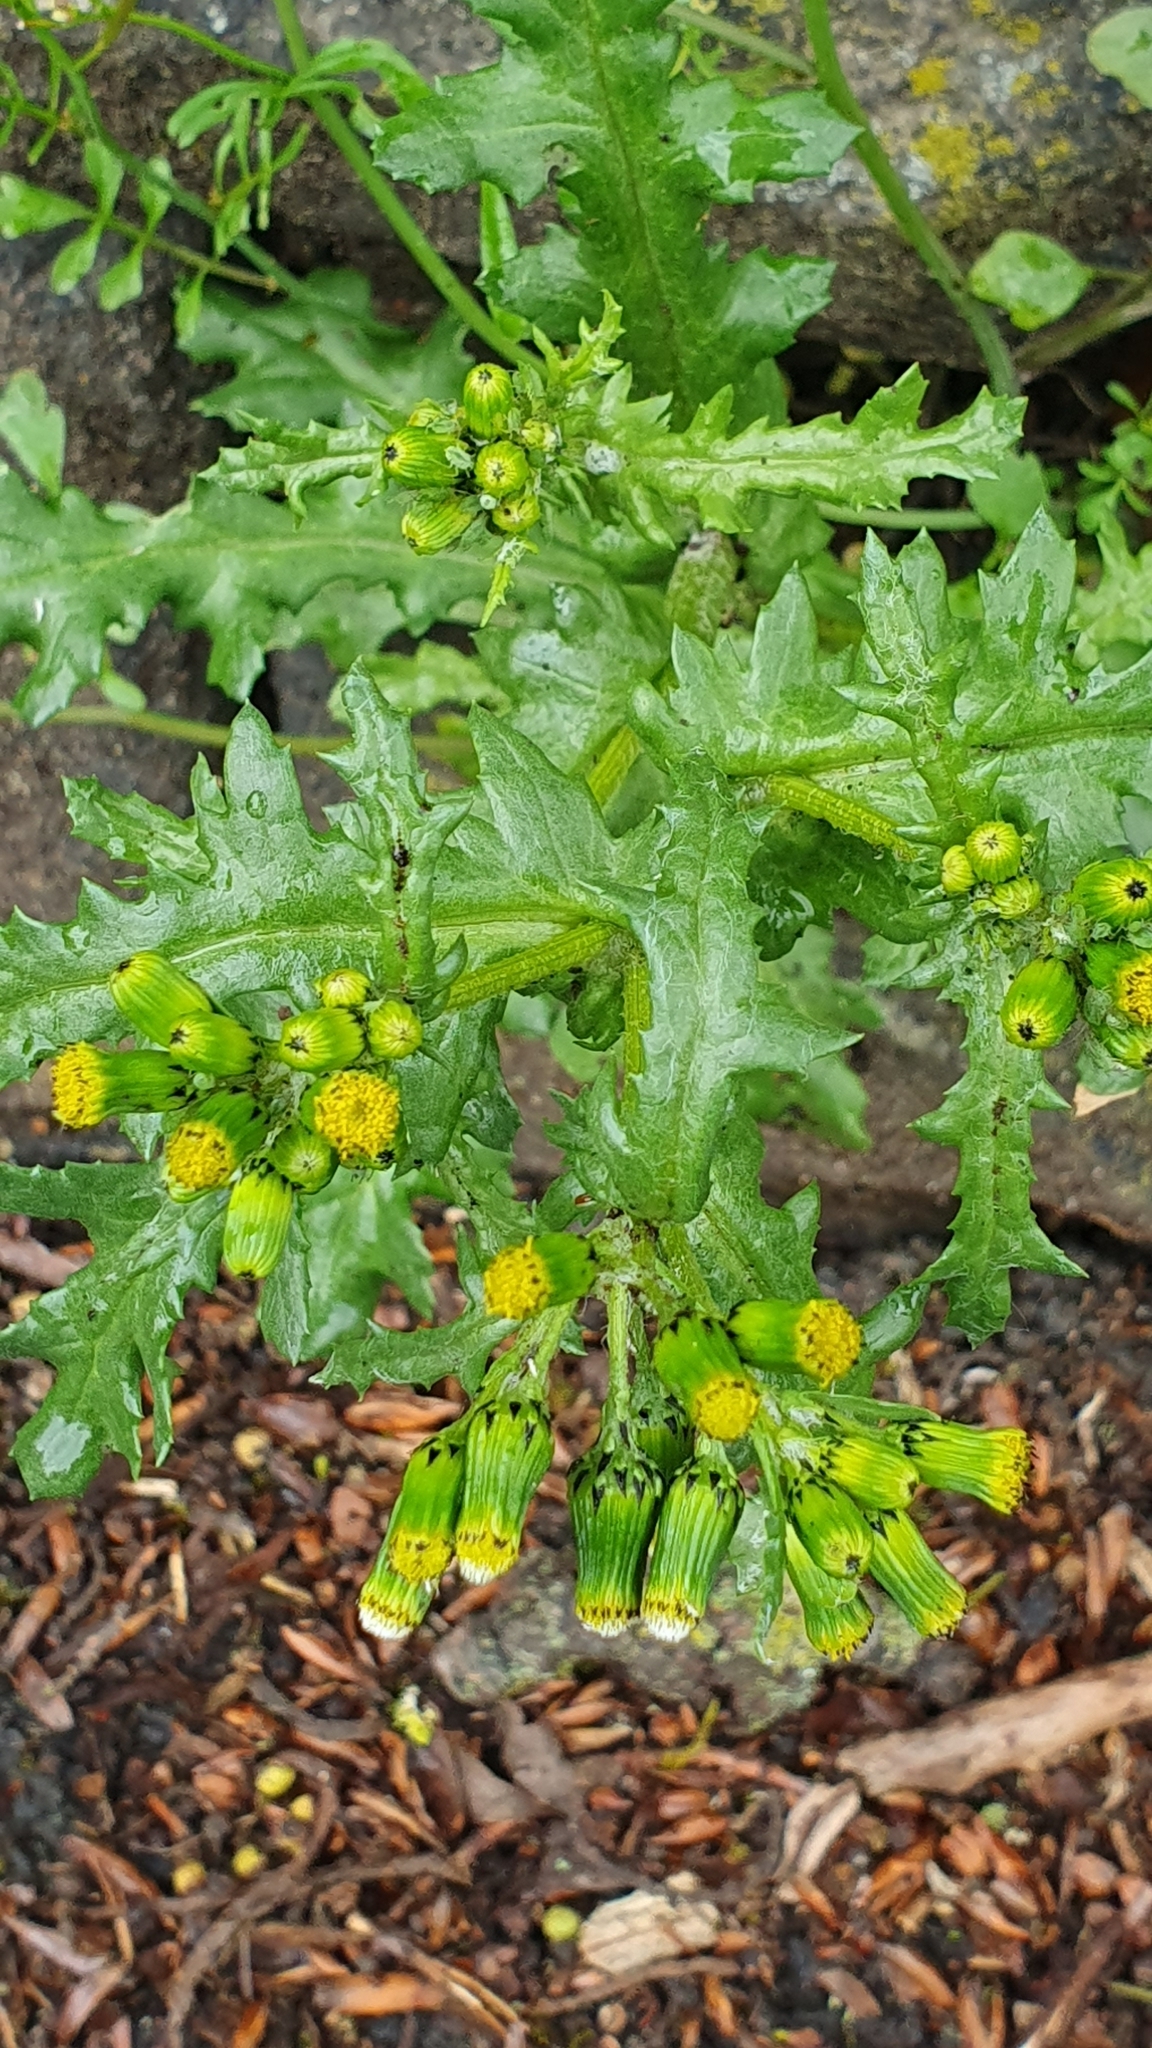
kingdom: Plantae
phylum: Tracheophyta
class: Magnoliopsida
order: Asterales
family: Asteraceae
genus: Senecio
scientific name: Senecio vulgaris
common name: Old-man-in-the-spring
